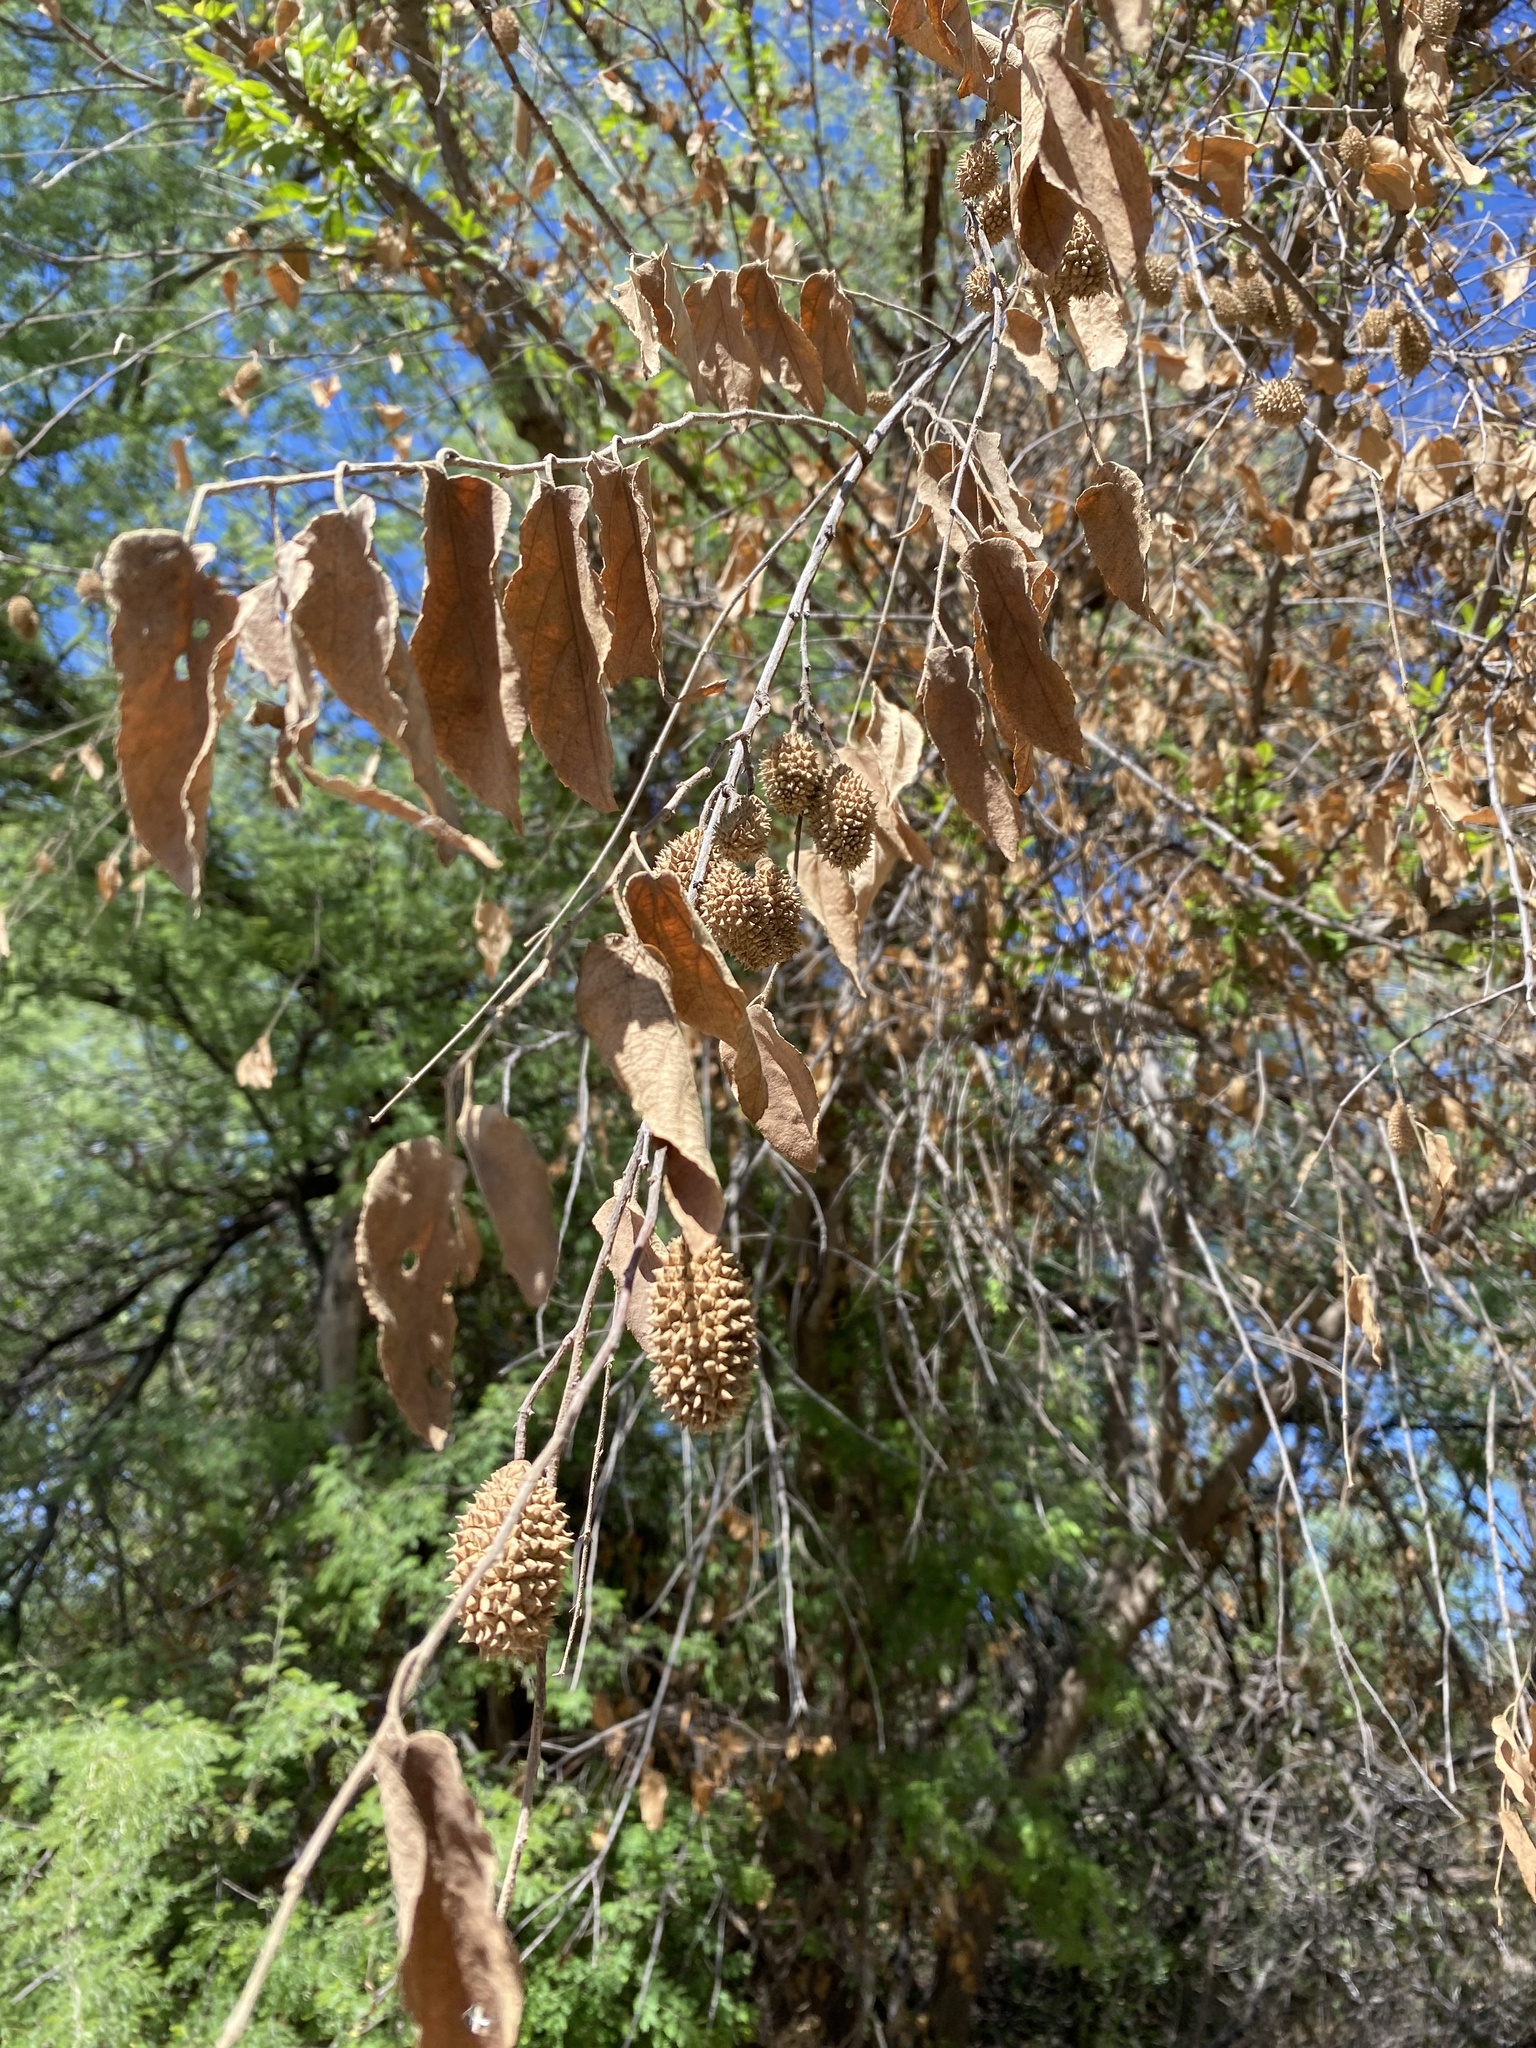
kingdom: Plantae
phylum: Tracheophyta
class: Magnoliopsida
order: Malvales
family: Malvaceae
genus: Guazuma
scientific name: Guazuma ulmifolia
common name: Bastard-cedar
